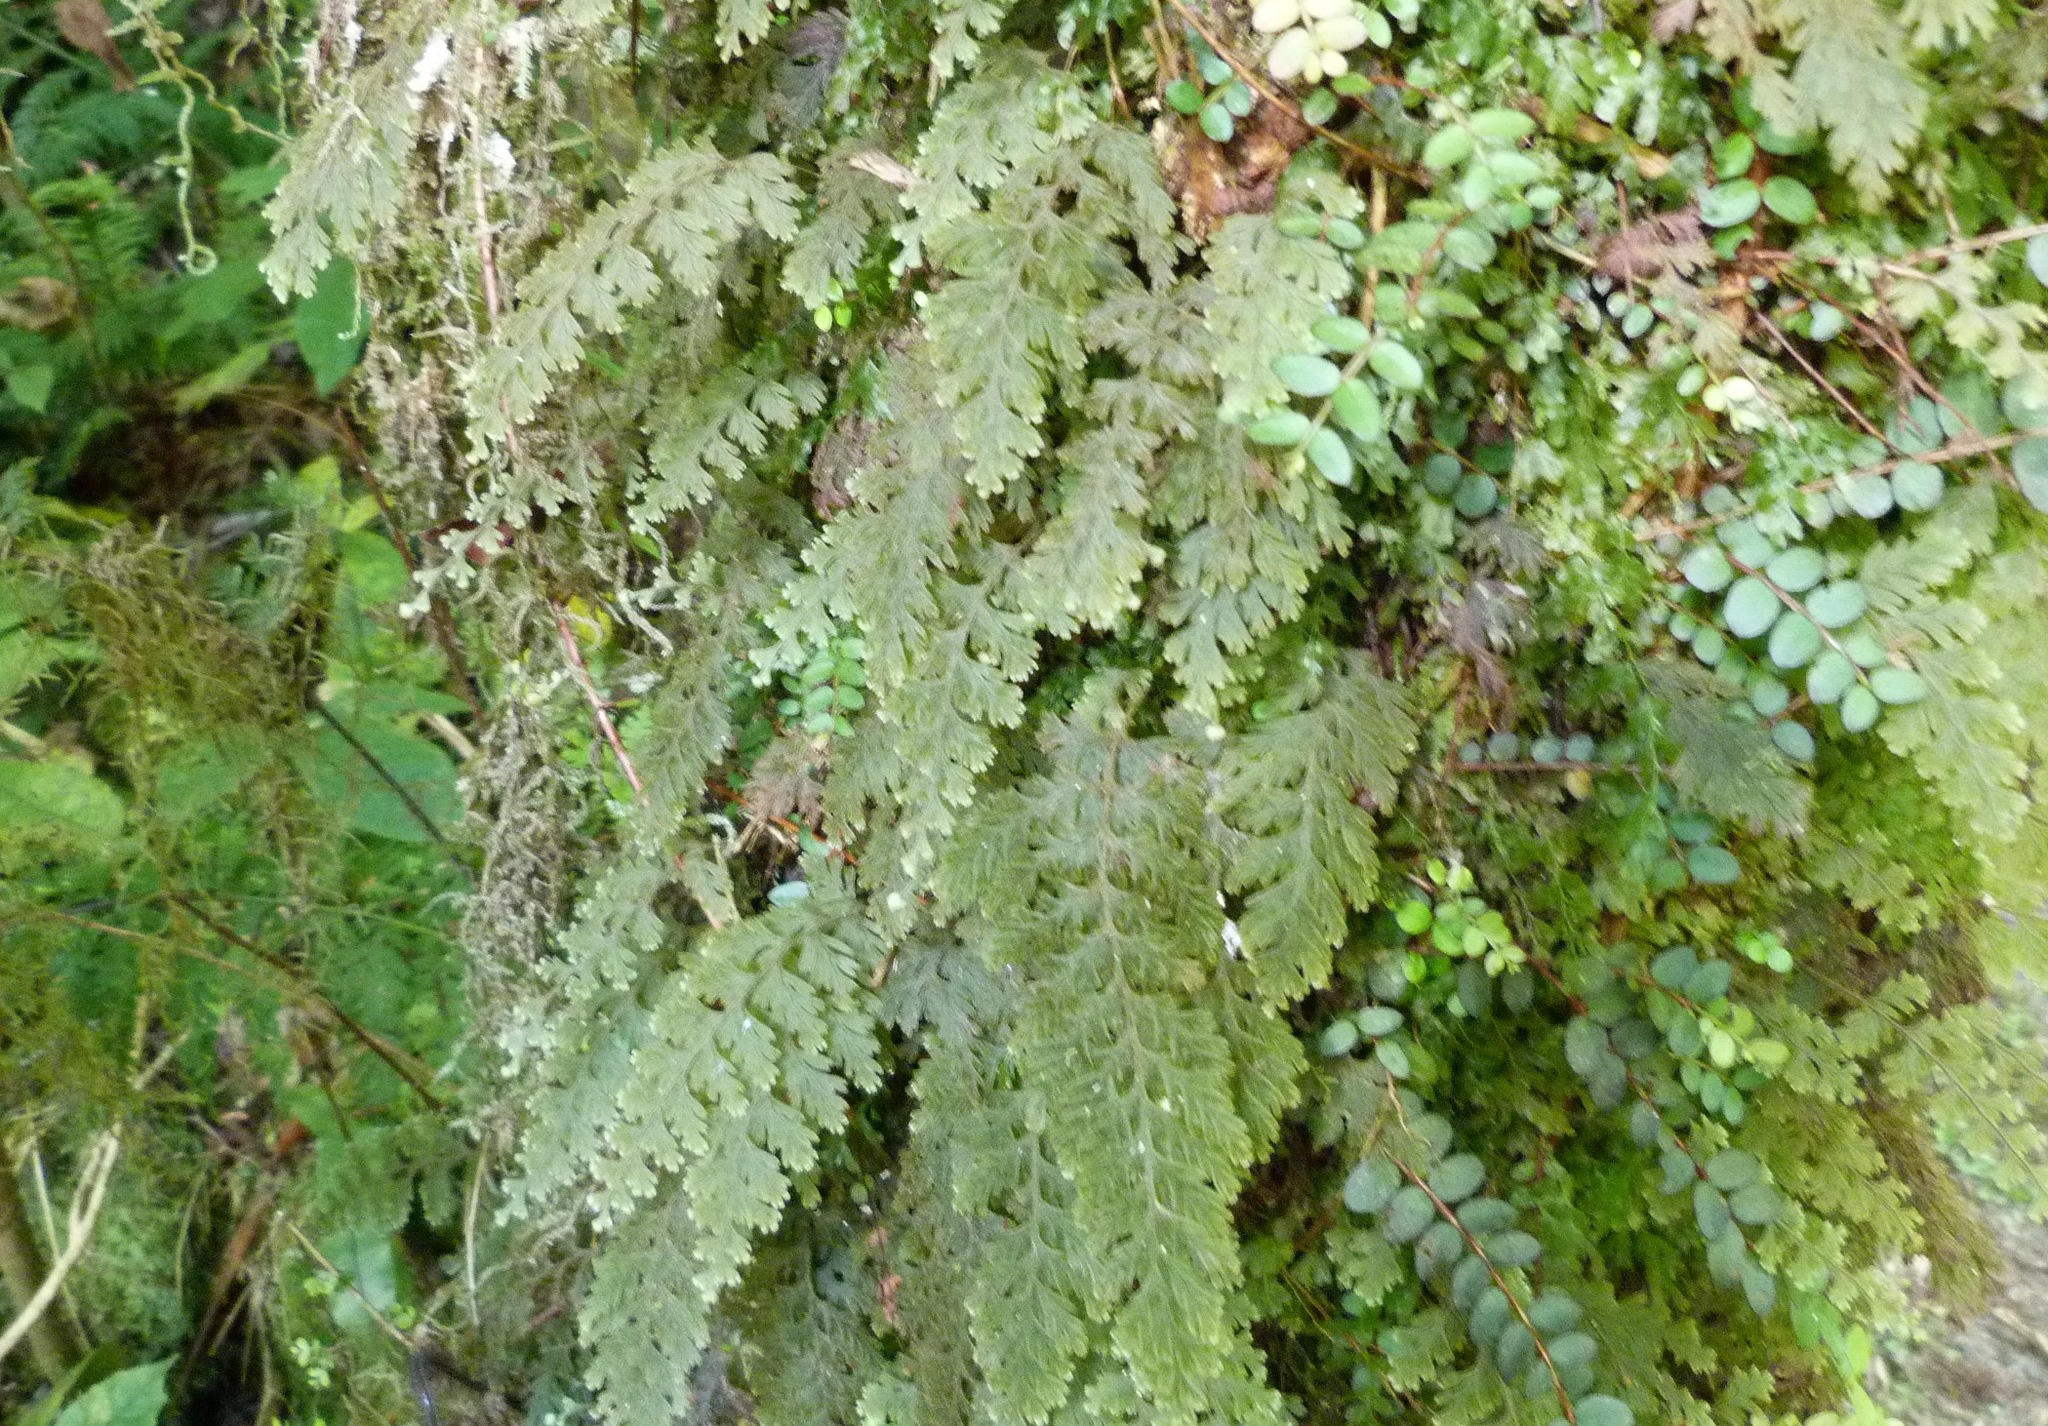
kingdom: Plantae
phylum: Tracheophyta
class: Polypodiopsida
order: Hymenophyllales
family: Hymenophyllaceae
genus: Hymenophyllum
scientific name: Hymenophyllum frankliniae
